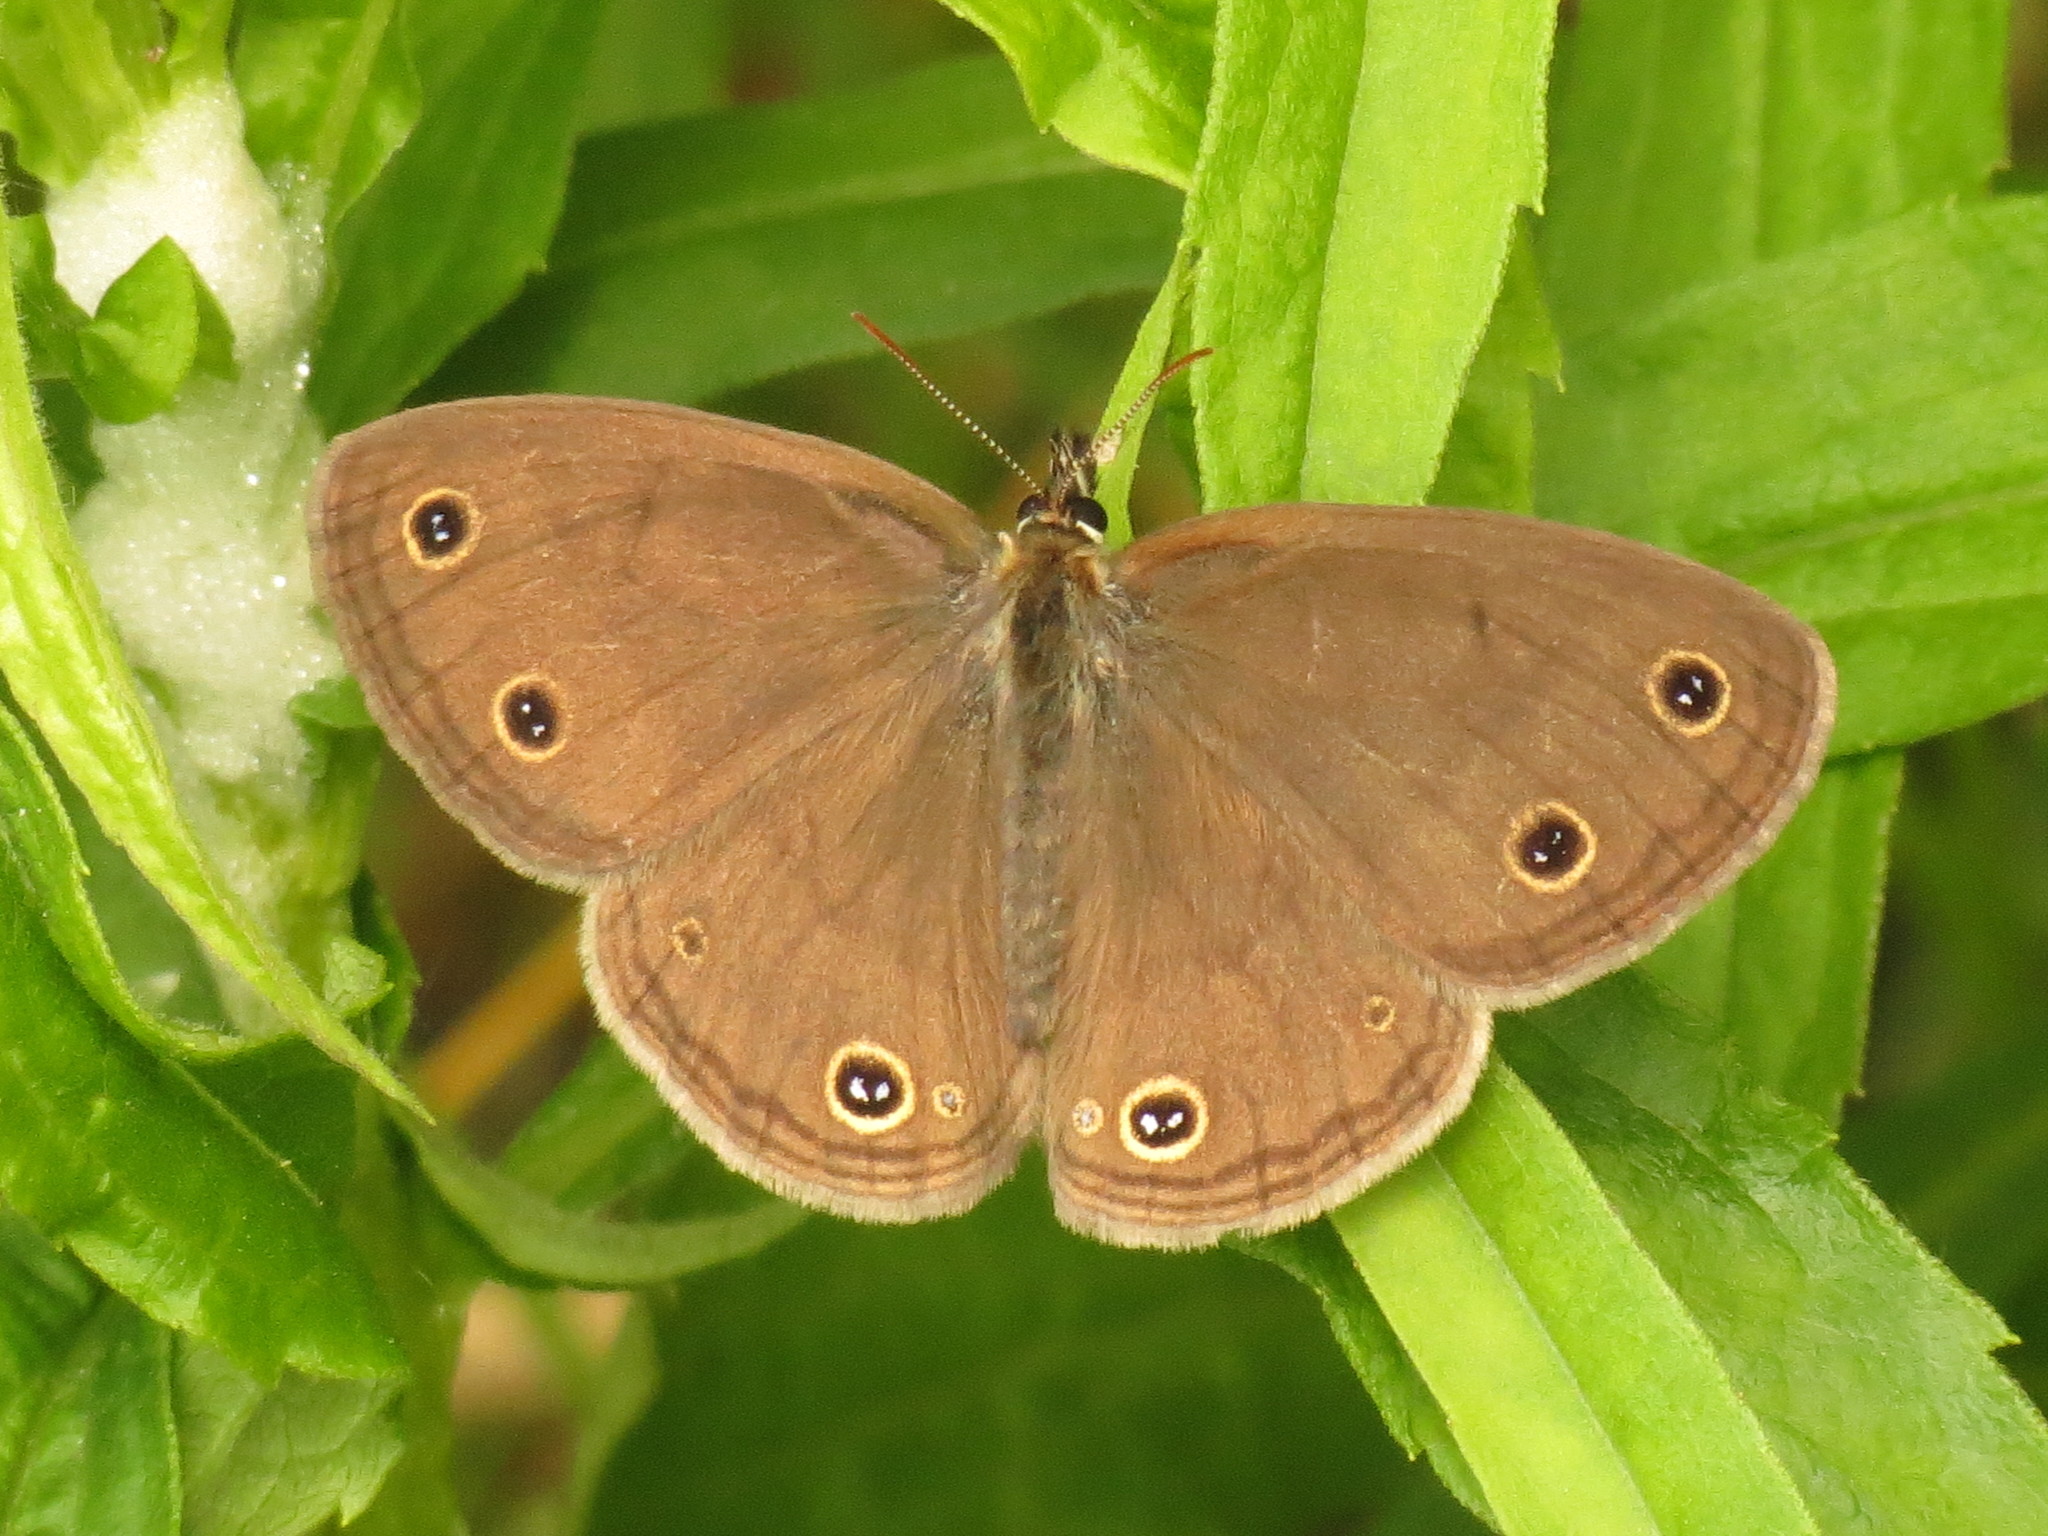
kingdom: Animalia
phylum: Arthropoda
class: Insecta
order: Lepidoptera
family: Nymphalidae
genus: Euptychia
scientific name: Euptychia cymela
